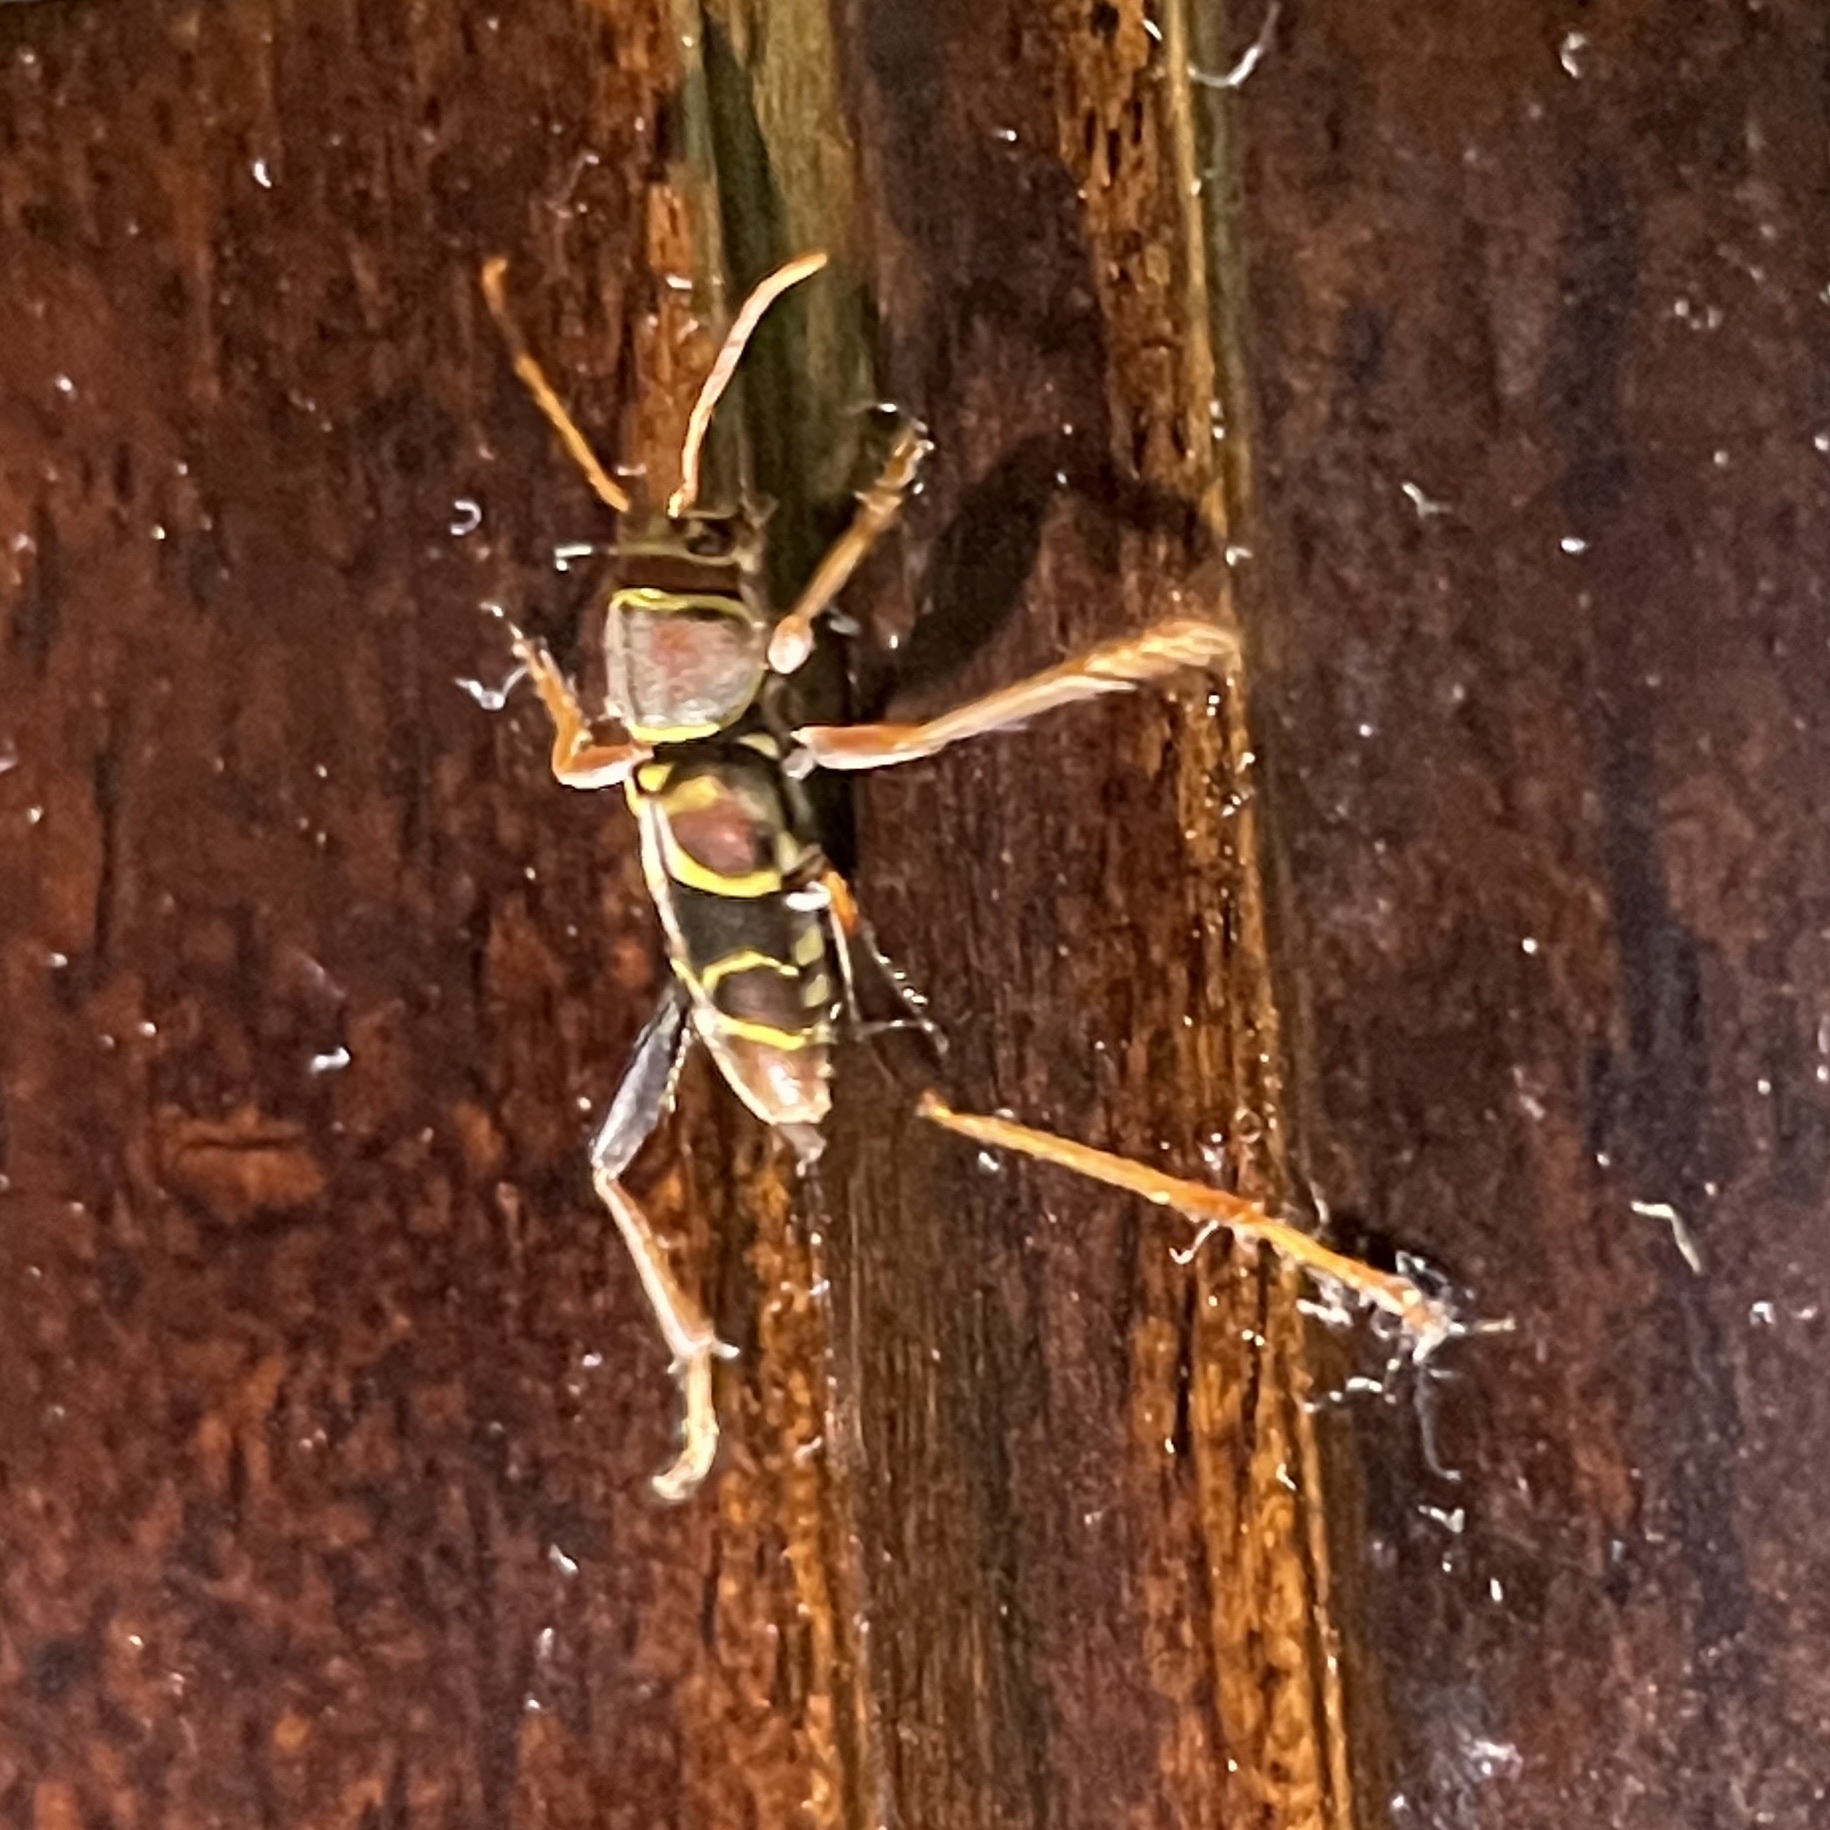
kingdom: Animalia
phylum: Arthropoda
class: Insecta
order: Coleoptera
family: Cerambycidae
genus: Neoclytus
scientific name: Neoclytus mucronatus
